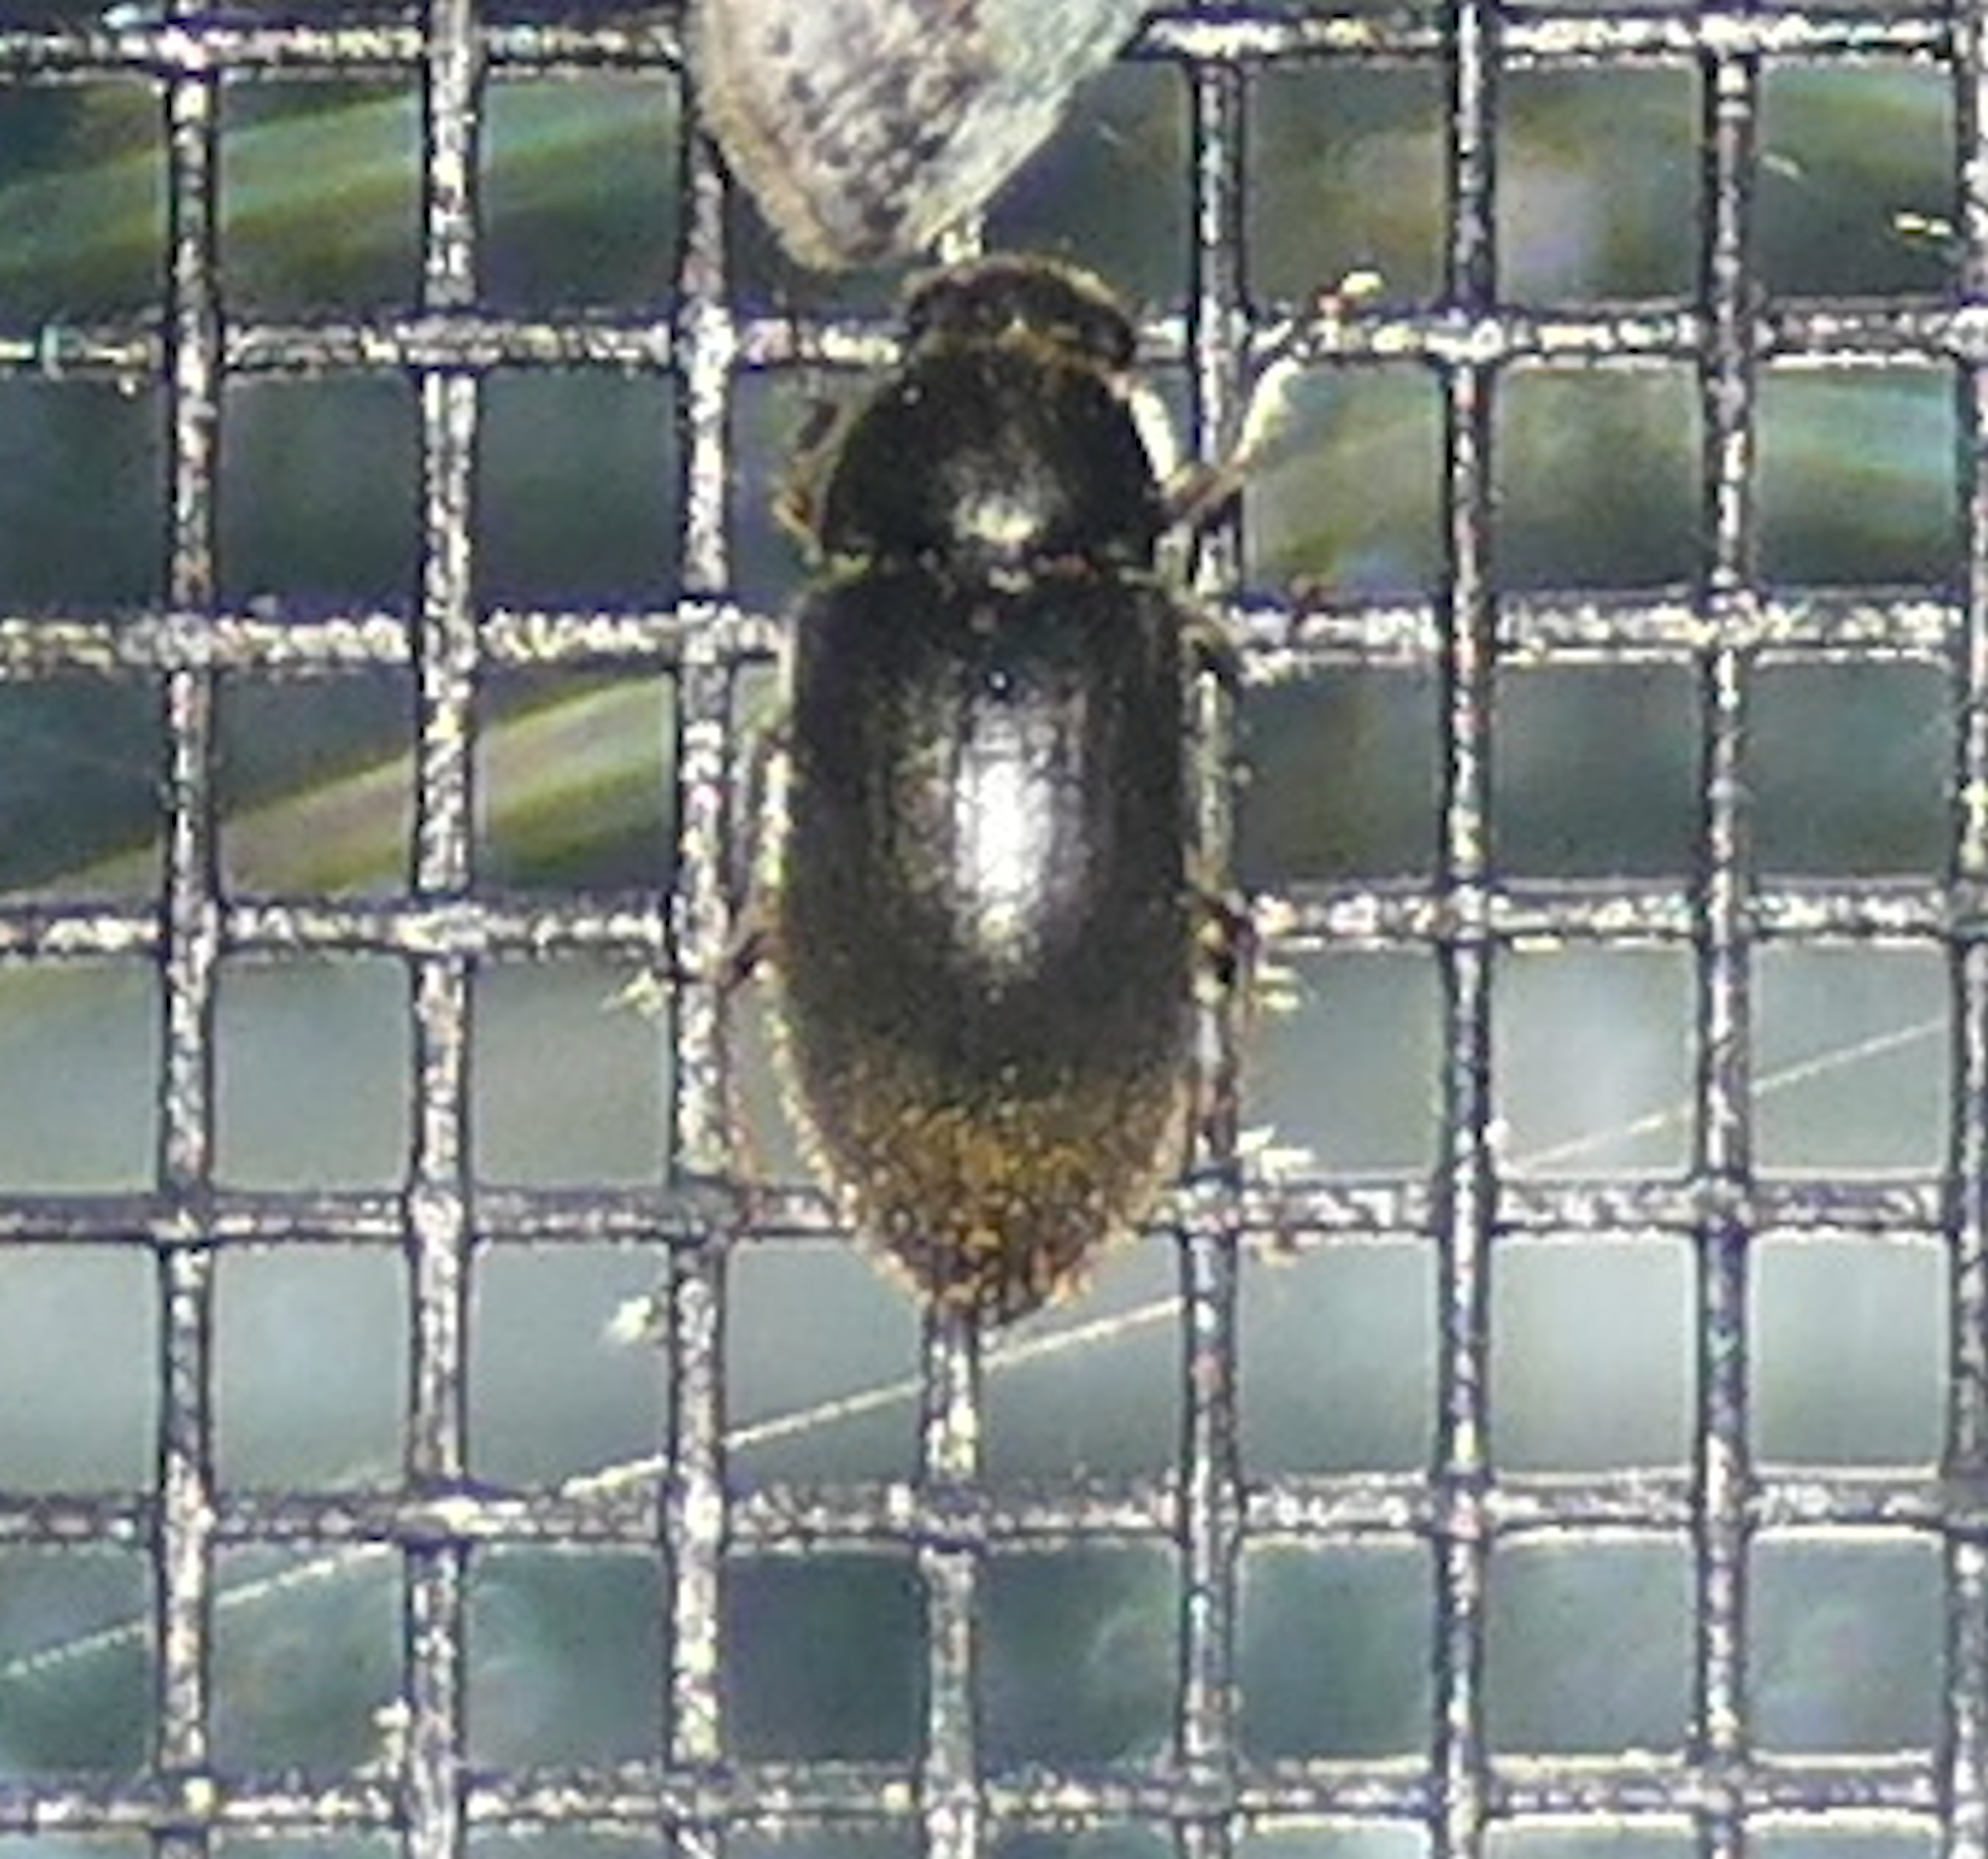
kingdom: Animalia
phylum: Arthropoda
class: Insecta
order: Coleoptera
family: Dryopidae
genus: Pelonomus
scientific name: Pelonomus obscurus
